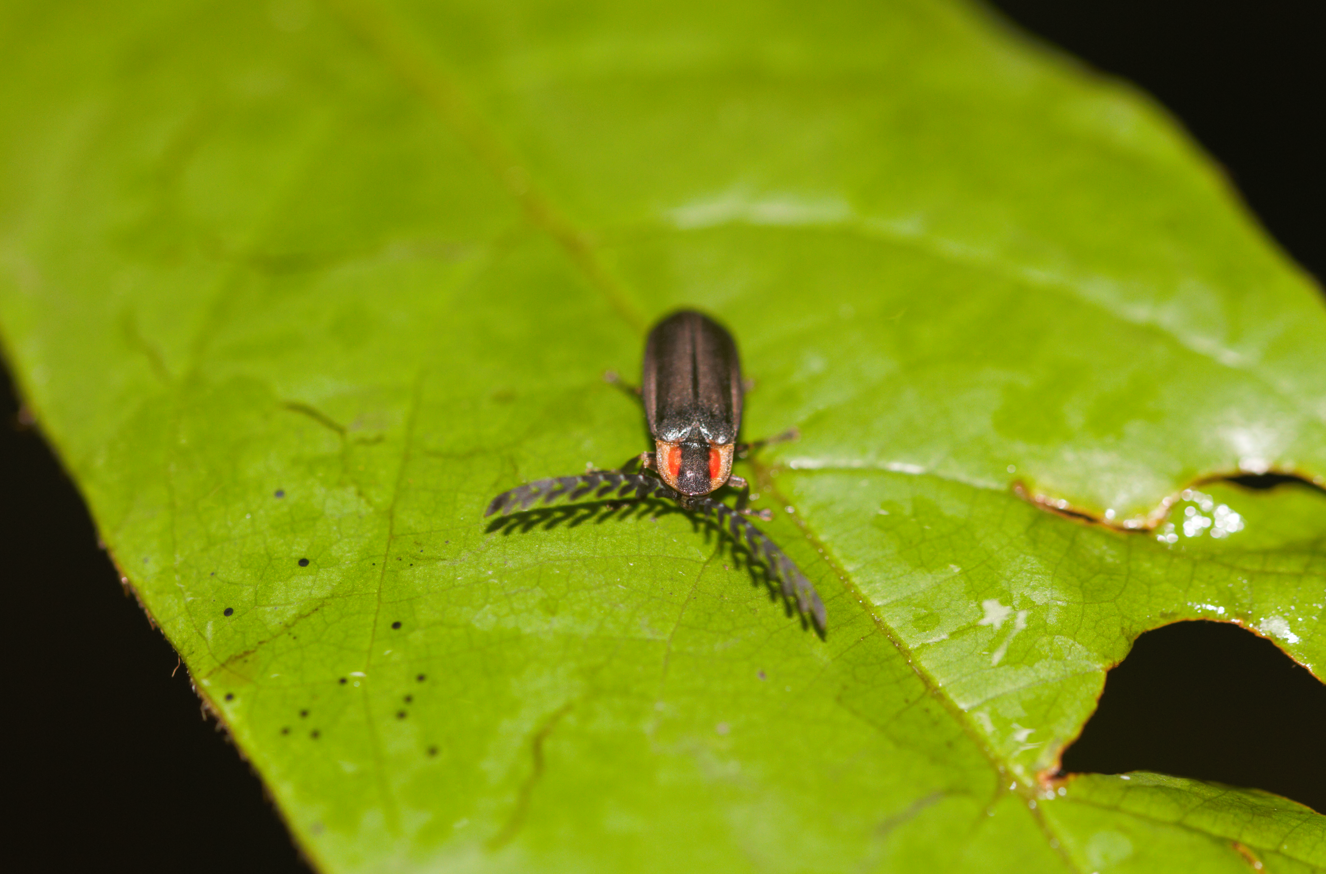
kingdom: Animalia
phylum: Arthropoda
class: Insecta
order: Coleoptera
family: Lampyridae
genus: Lucidota
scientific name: Lucidota pennata
